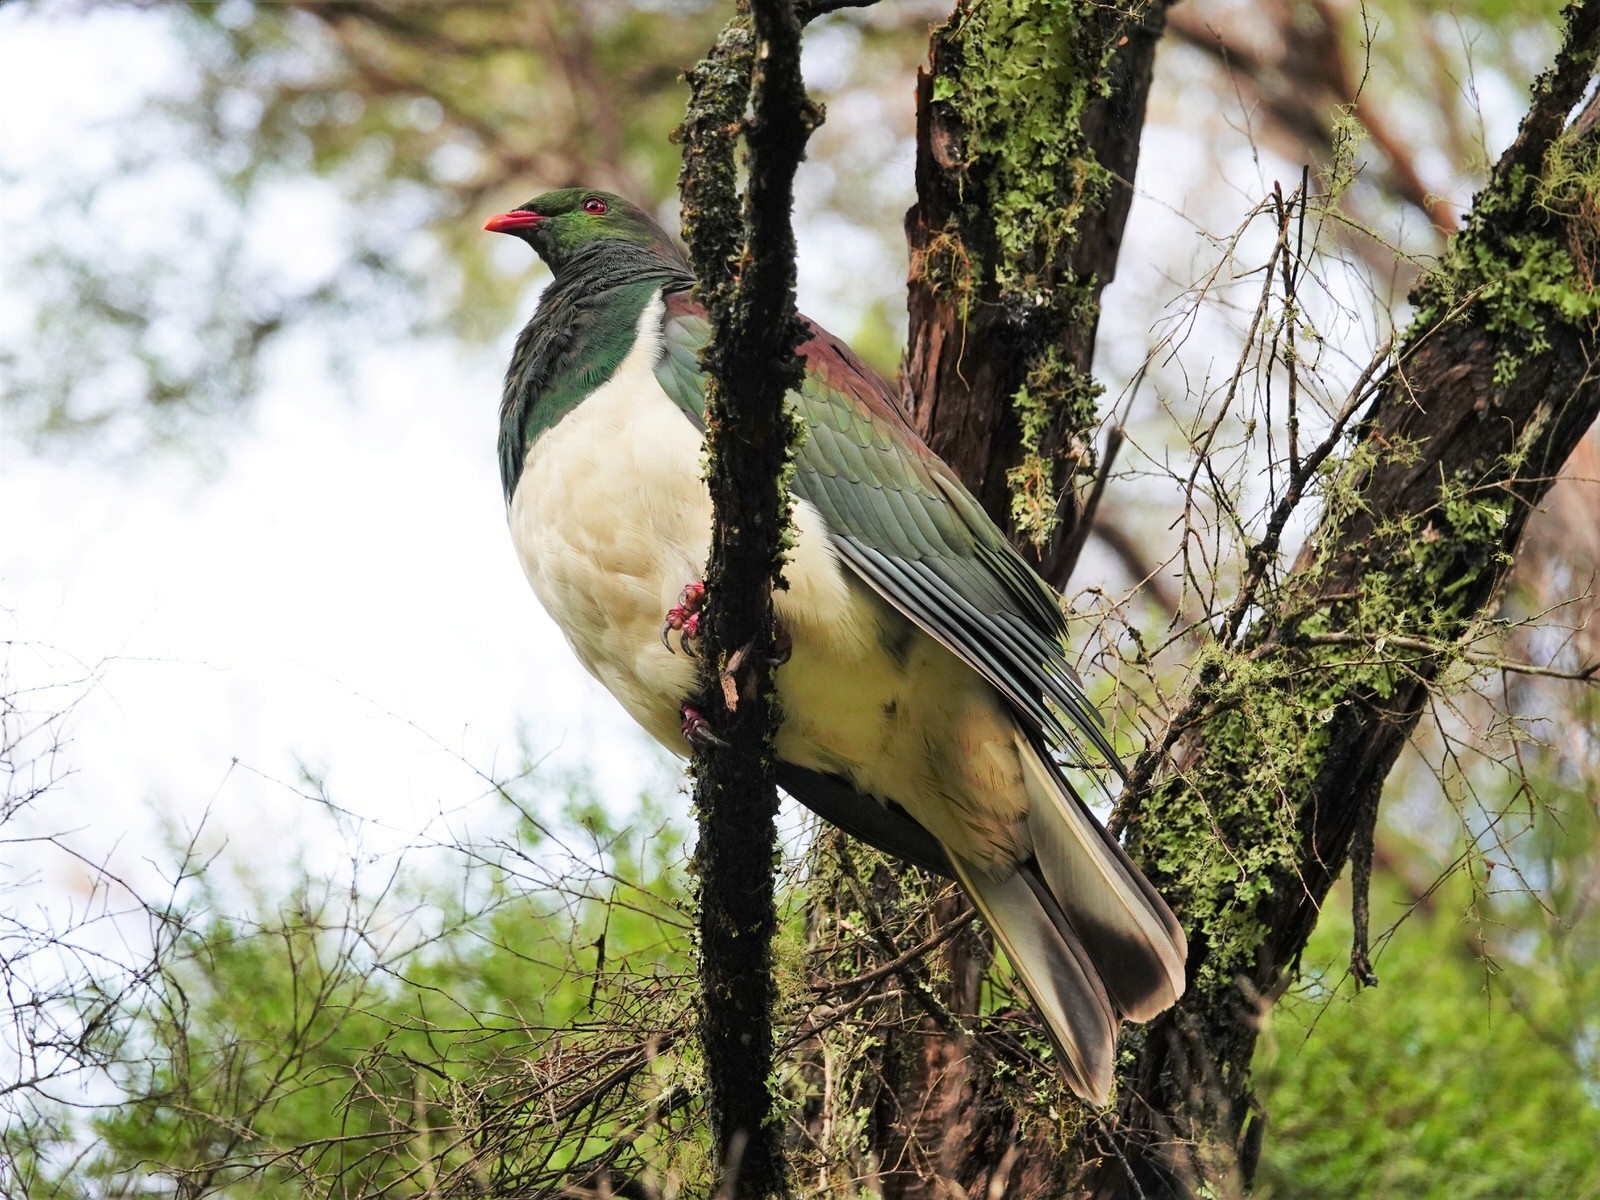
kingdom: Animalia
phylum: Chordata
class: Aves
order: Columbiformes
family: Columbidae
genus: Hemiphaga
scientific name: Hemiphaga novaeseelandiae
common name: New zealand pigeon
